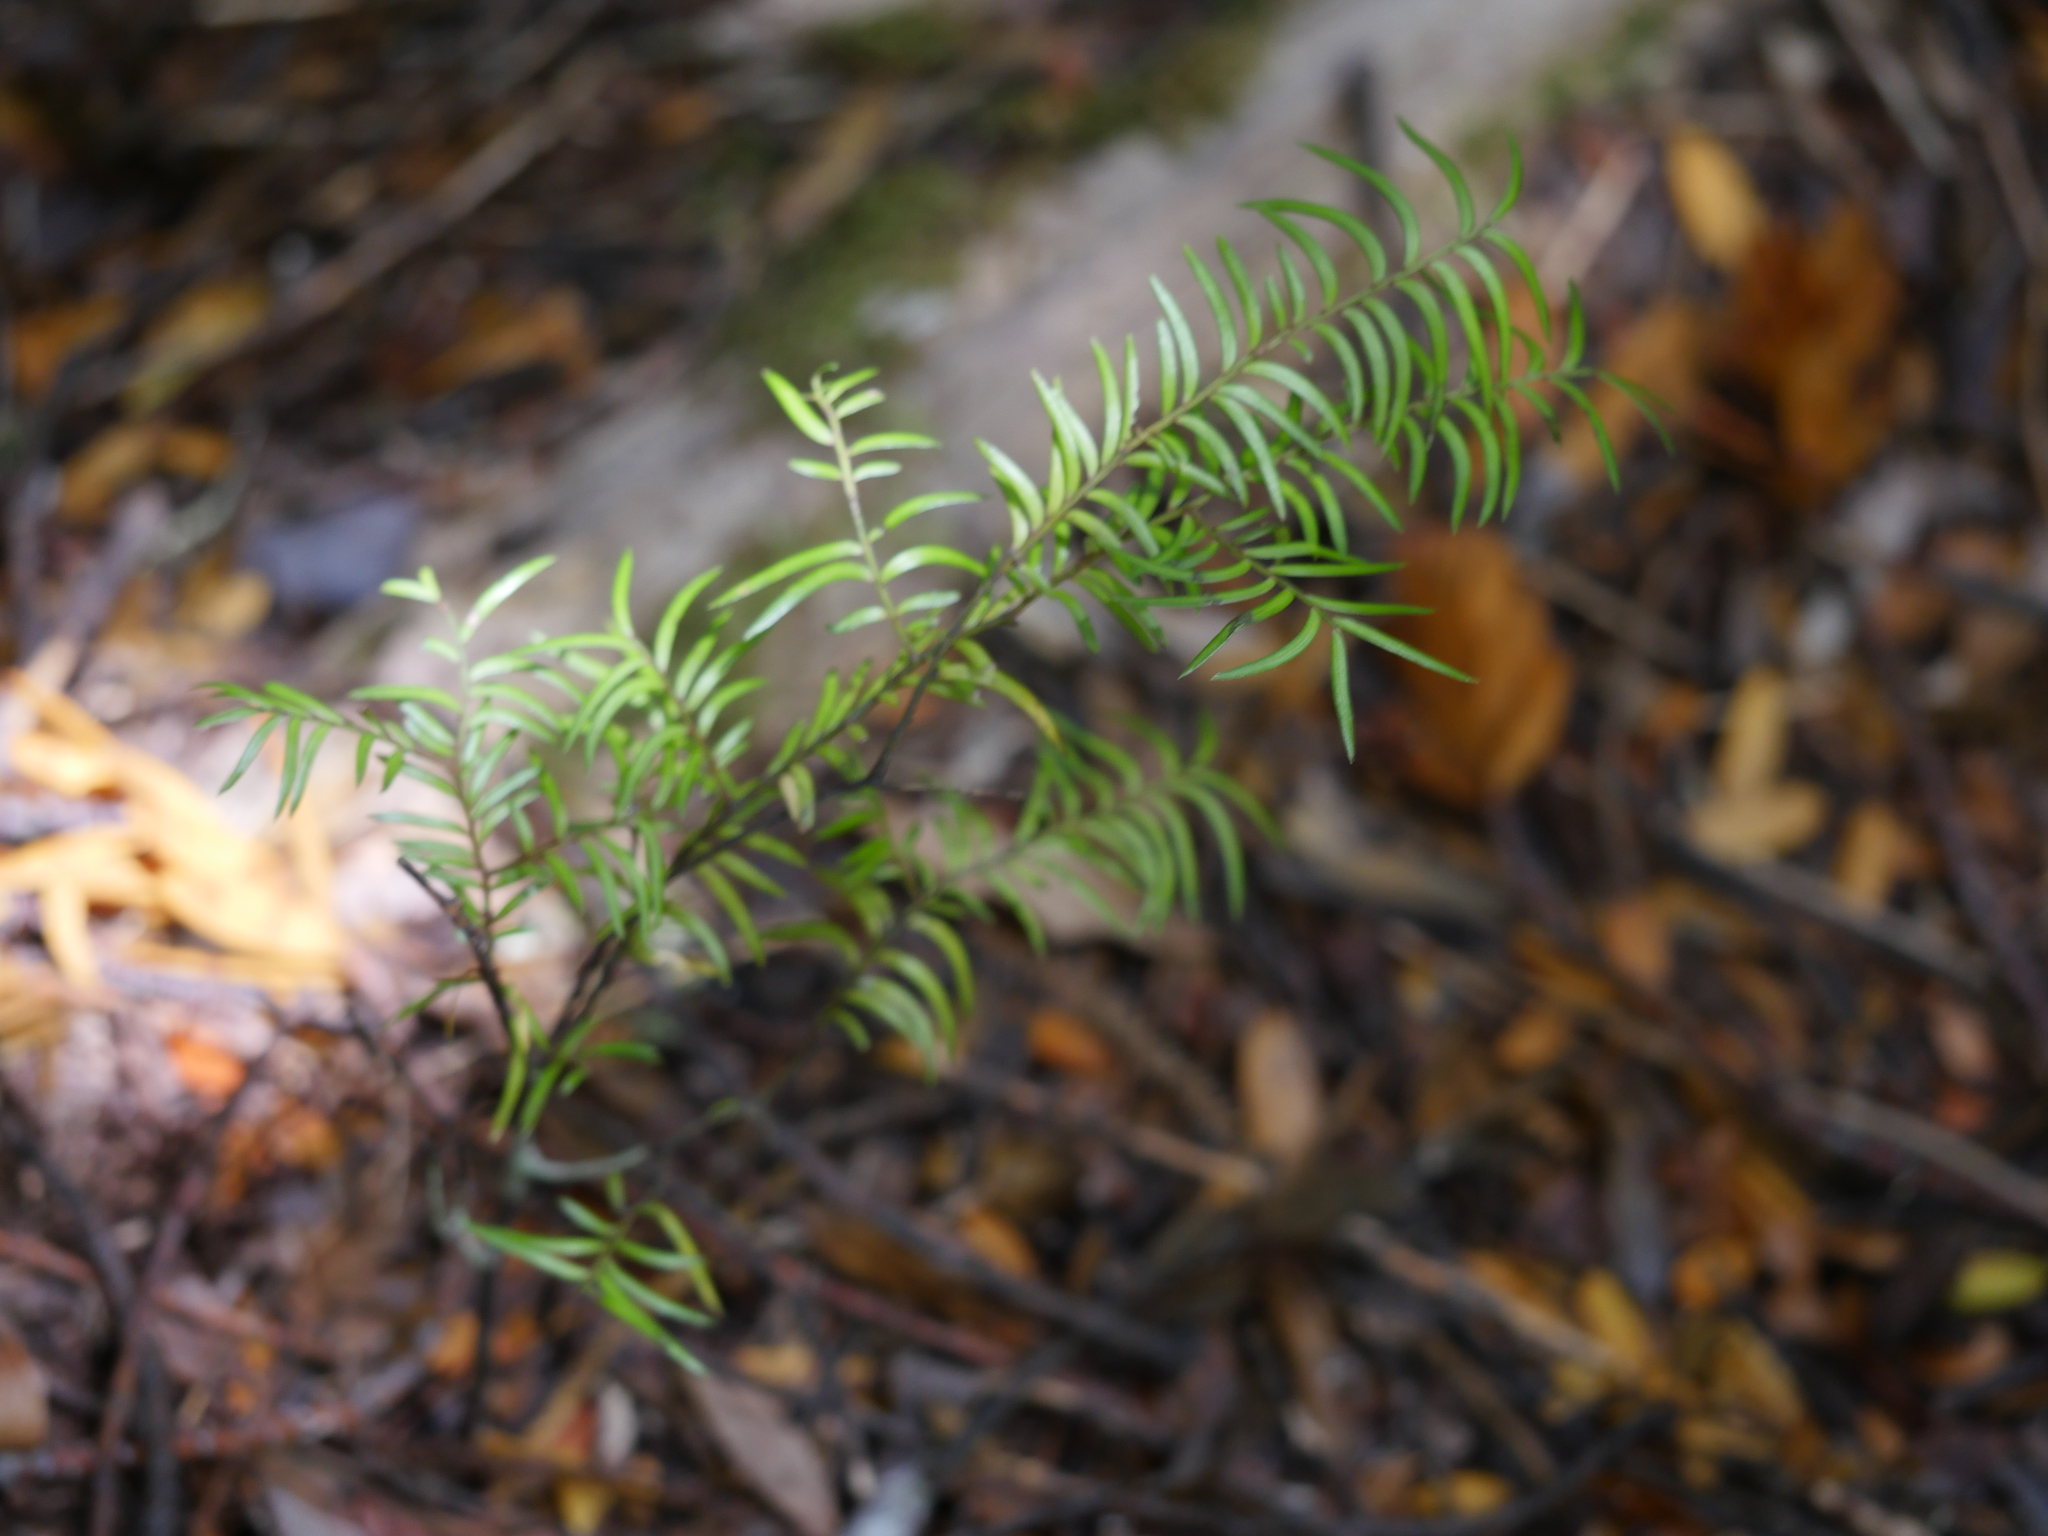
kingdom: Plantae
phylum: Tracheophyta
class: Pinopsida
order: Pinales
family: Podocarpaceae
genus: Prumnopitys
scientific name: Prumnopitys ferruginea
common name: Brown pine
